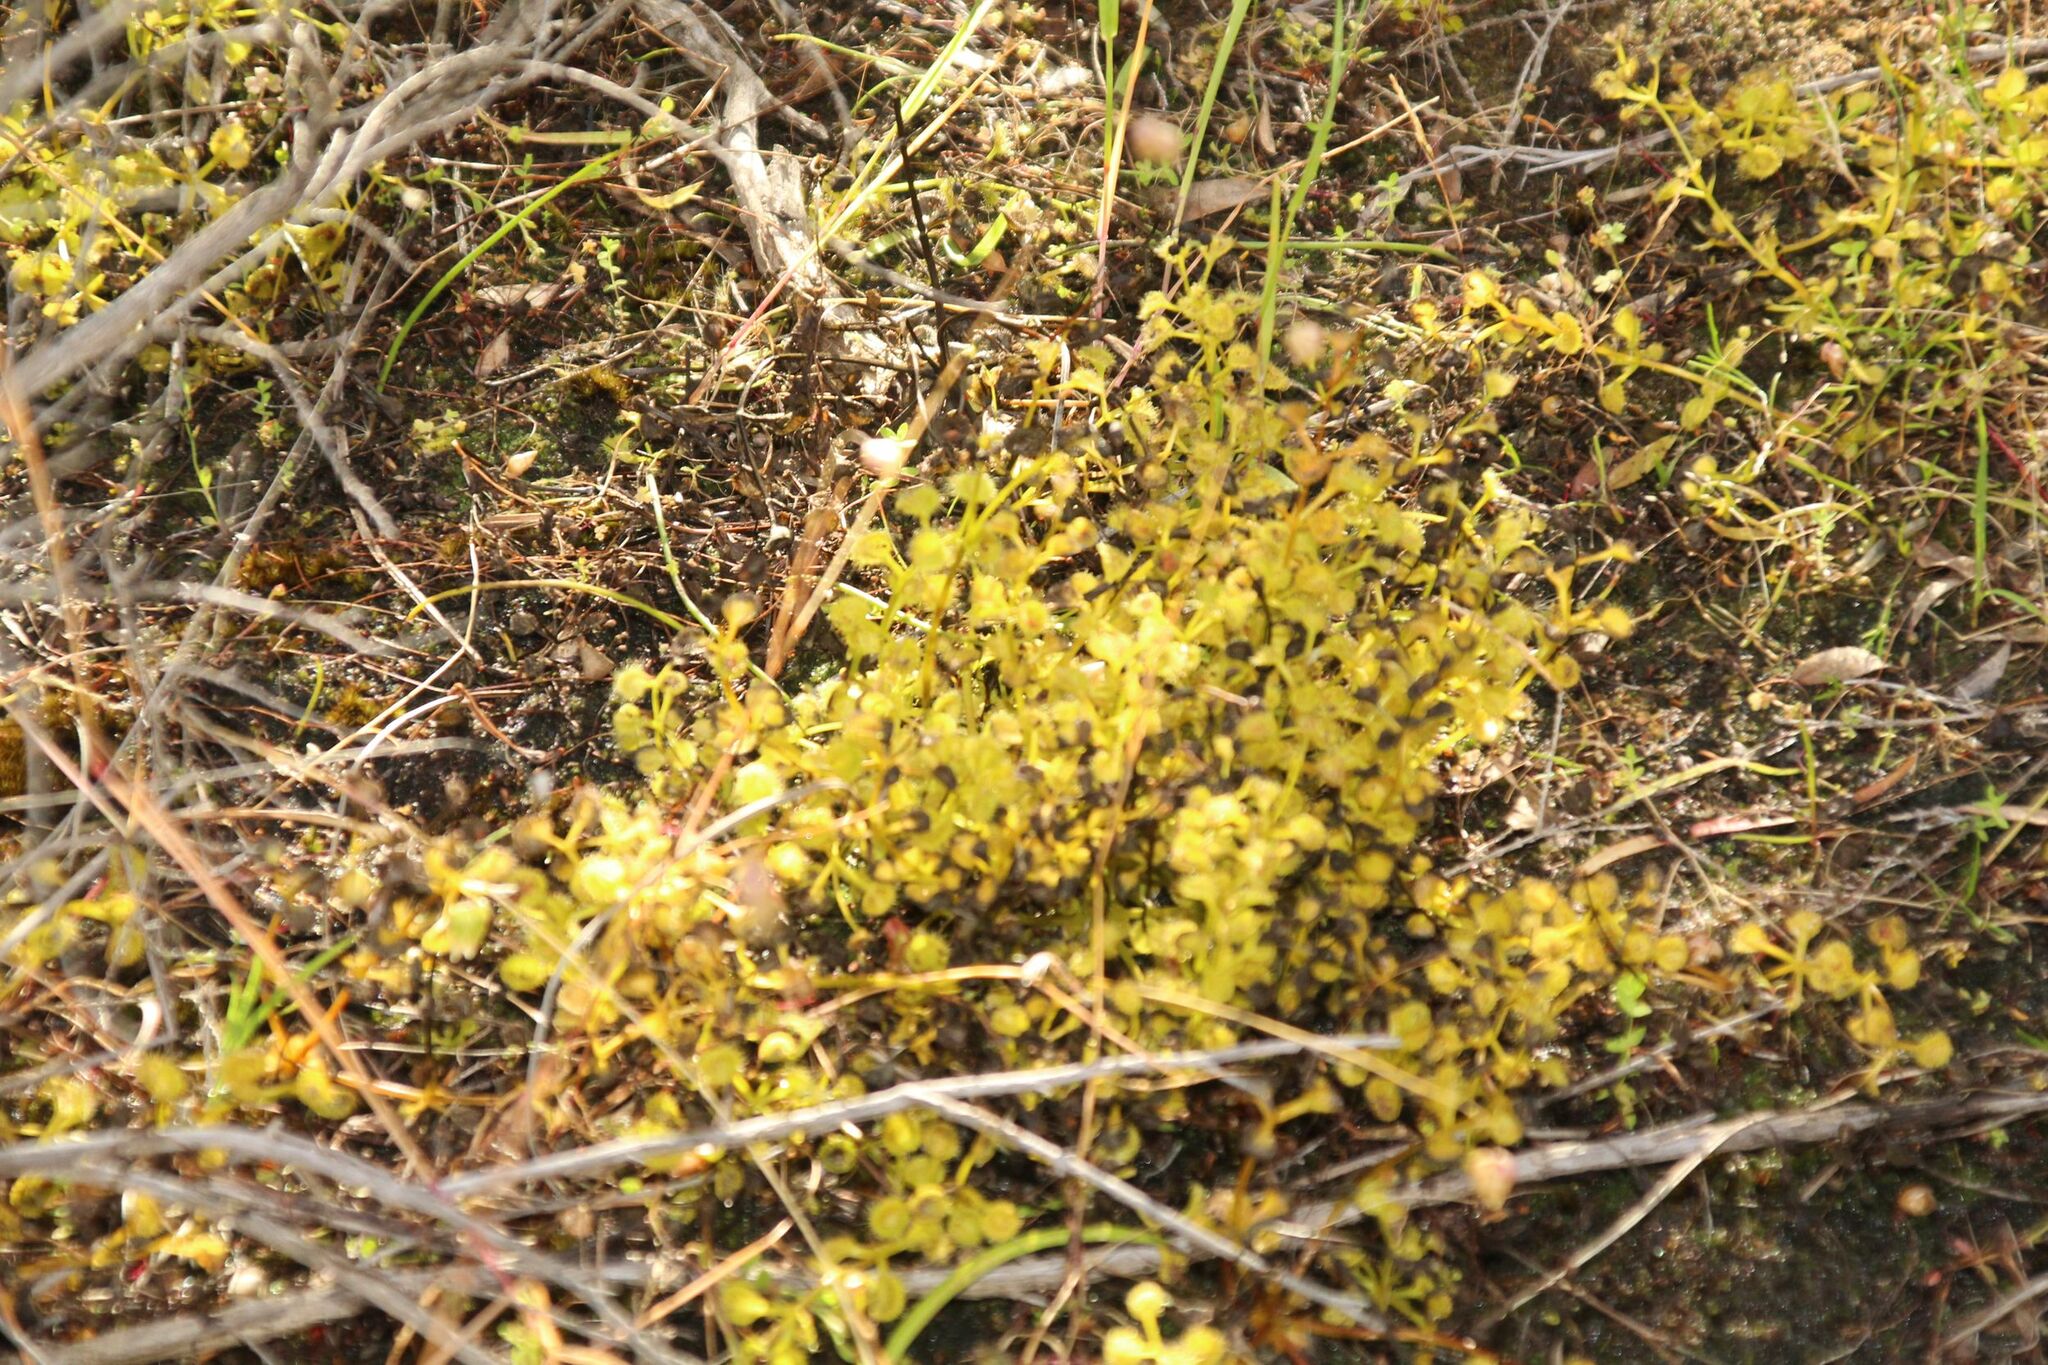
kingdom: Plantae
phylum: Tracheophyta
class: Magnoliopsida
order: Caryophyllales
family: Droseraceae
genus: Drosera
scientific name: Drosera rupicola
